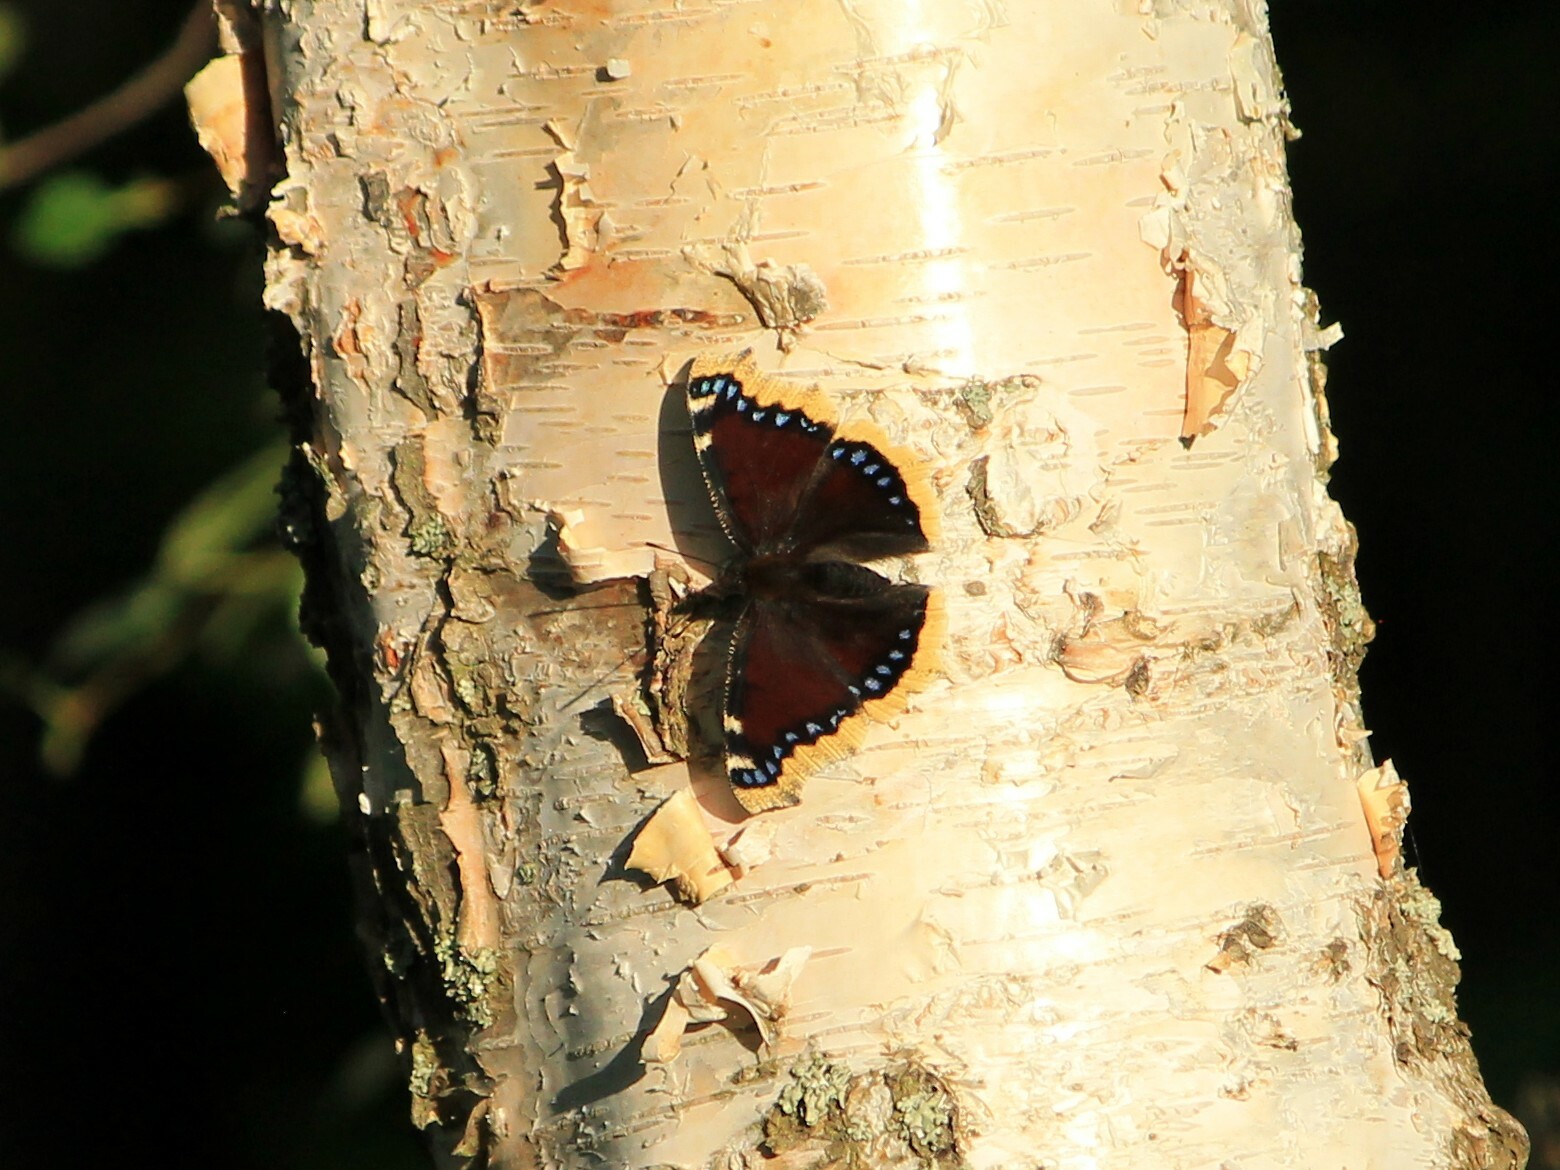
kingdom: Animalia
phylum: Arthropoda
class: Insecta
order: Lepidoptera
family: Nymphalidae
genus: Nymphalis
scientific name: Nymphalis antiopa
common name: Camberwell beauty
